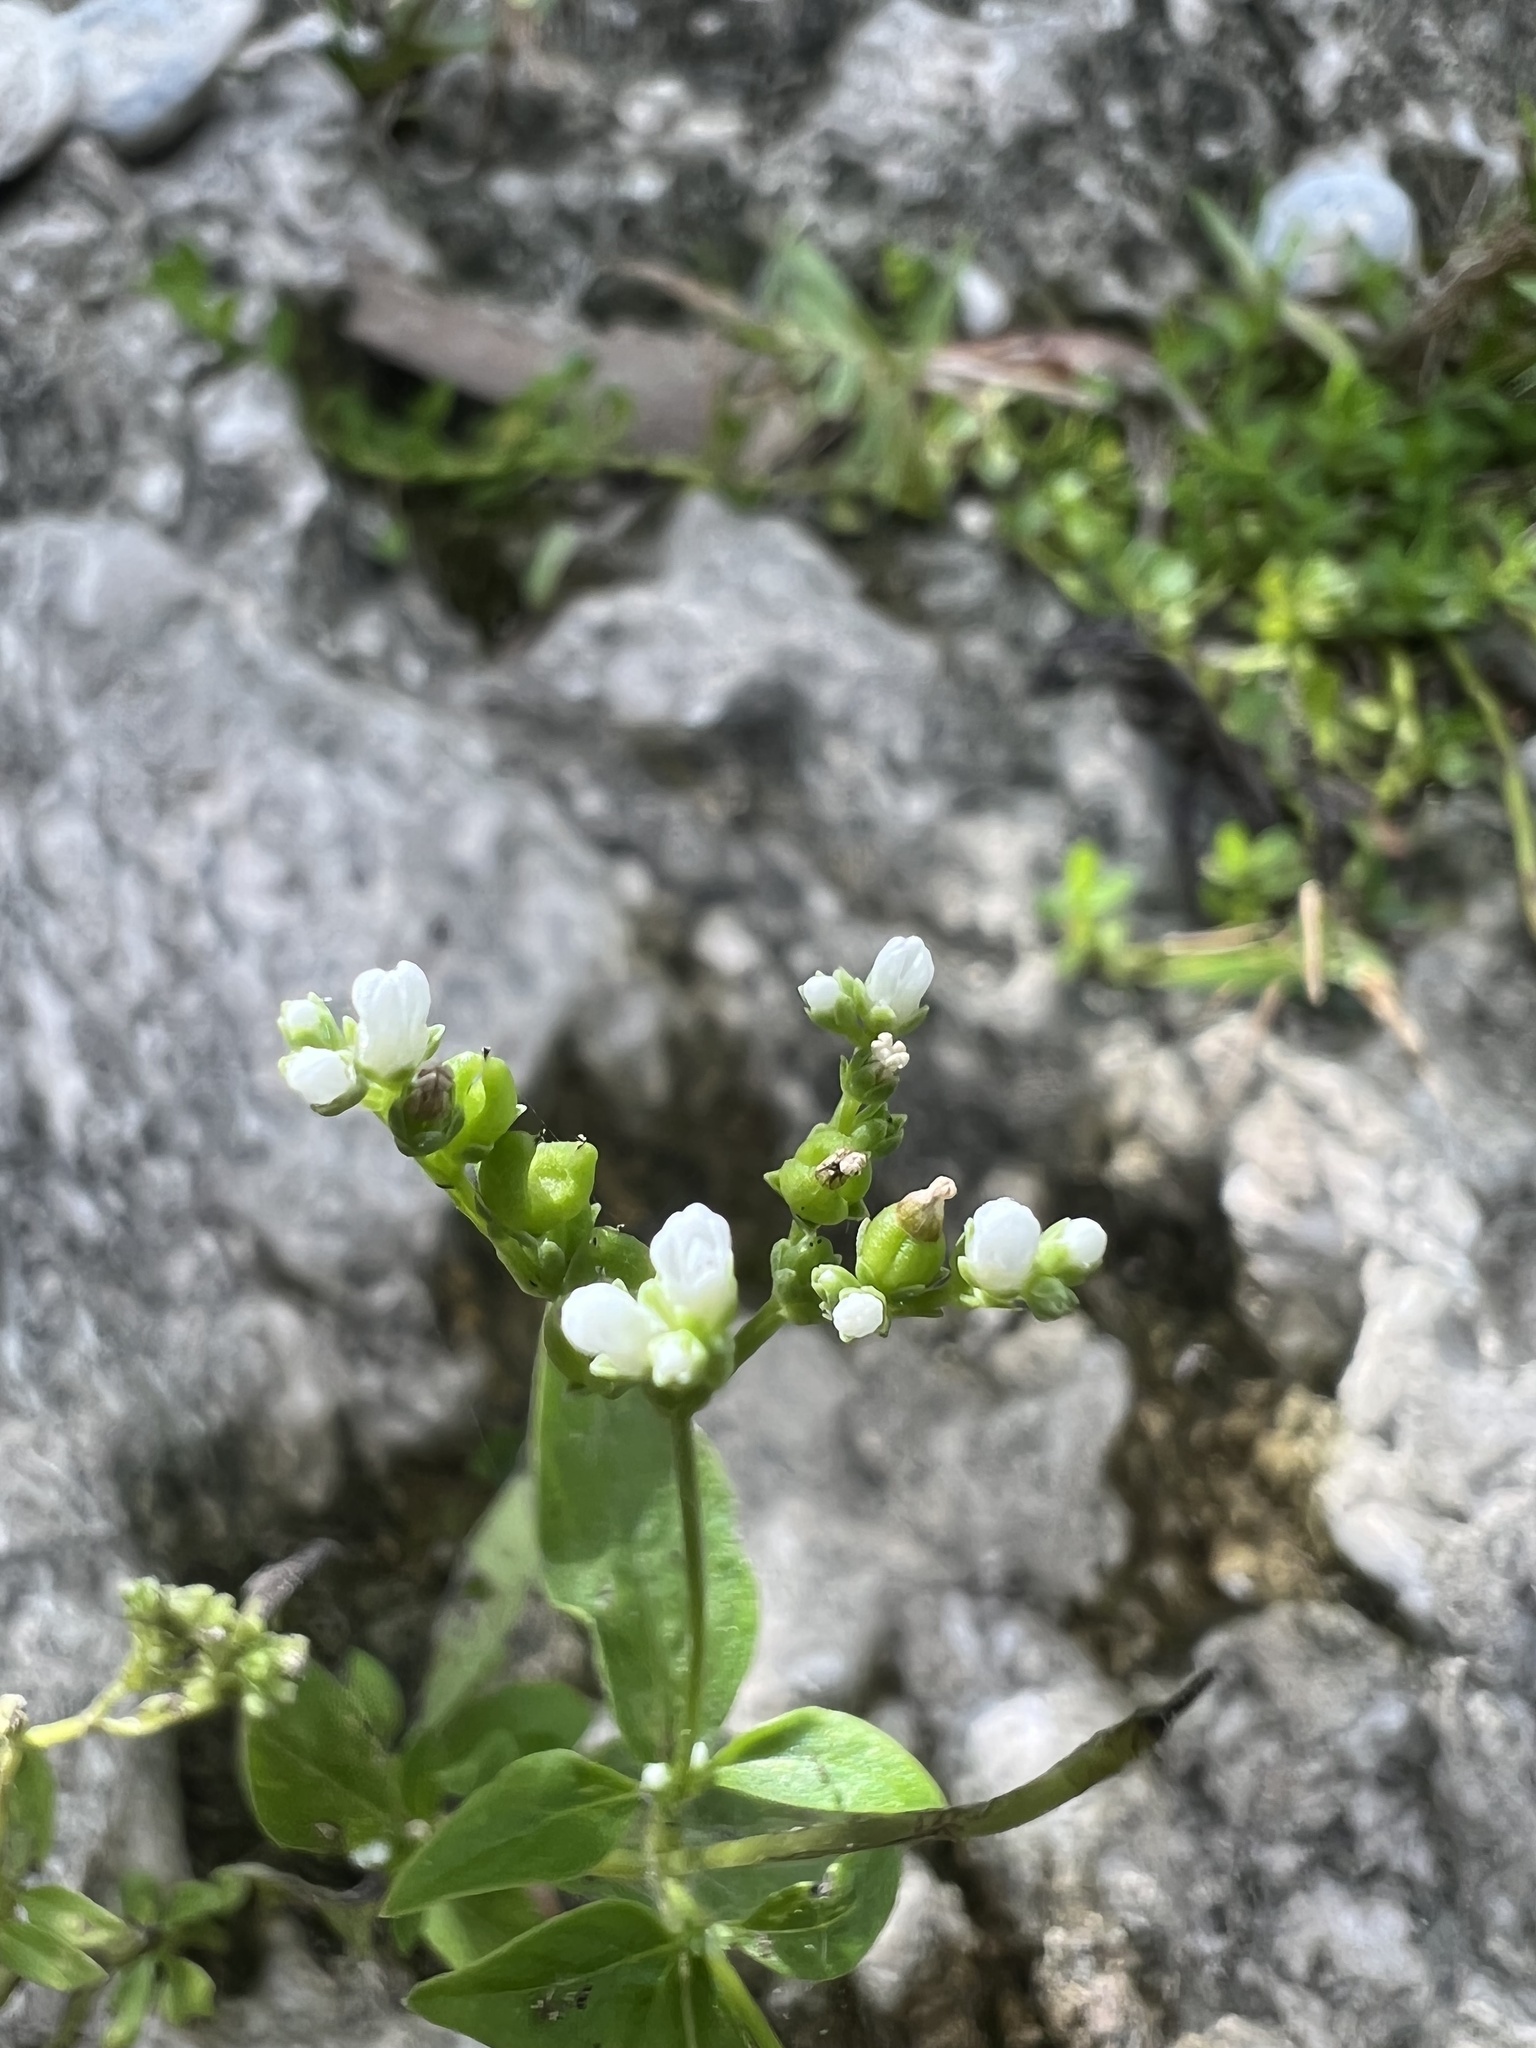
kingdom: Plantae
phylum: Tracheophyta
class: Magnoliopsida
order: Gentianales
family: Loganiaceae
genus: Mitreola
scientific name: Mitreola petiolata
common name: Lax hornpod
